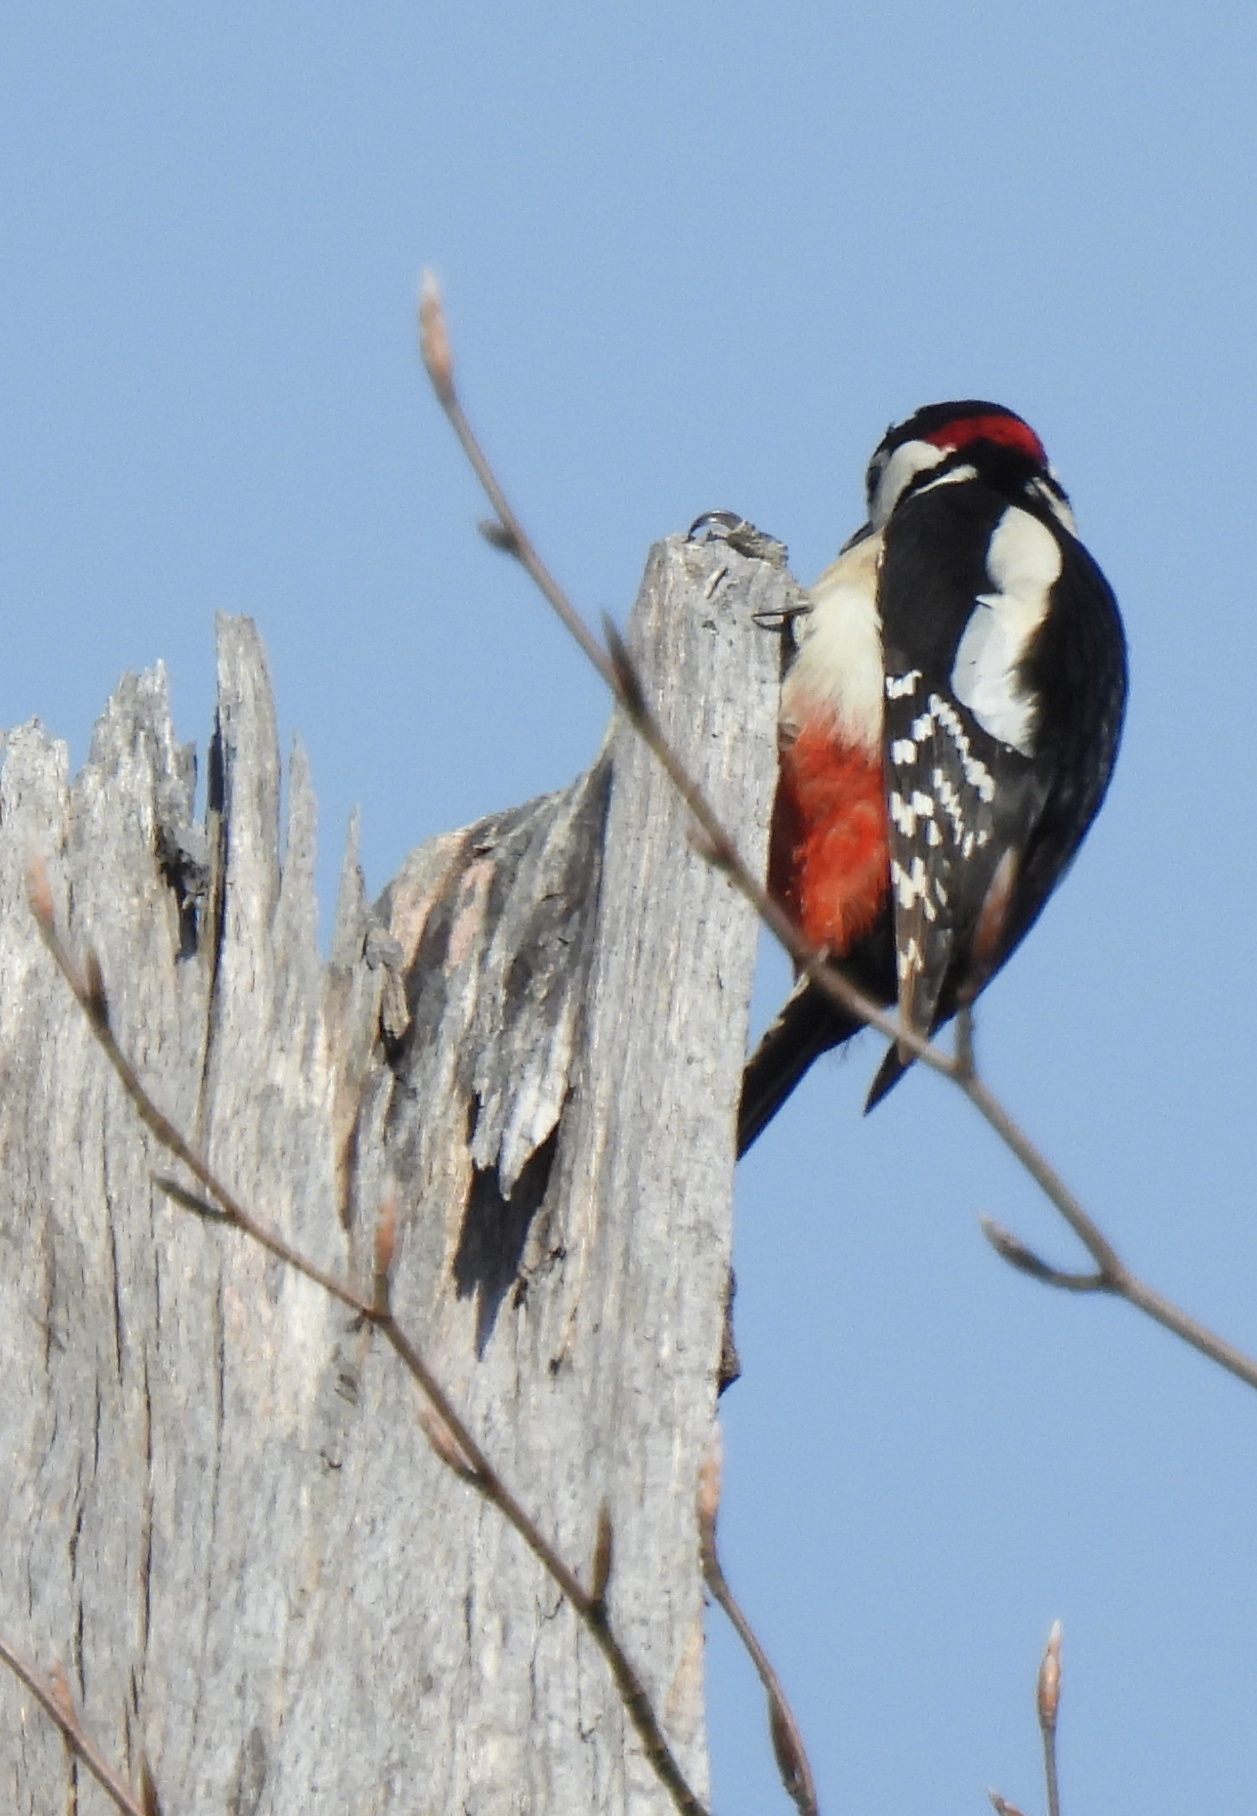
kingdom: Animalia
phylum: Chordata
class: Aves
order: Piciformes
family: Picidae
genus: Dendrocopos
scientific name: Dendrocopos major
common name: Great spotted woodpecker
